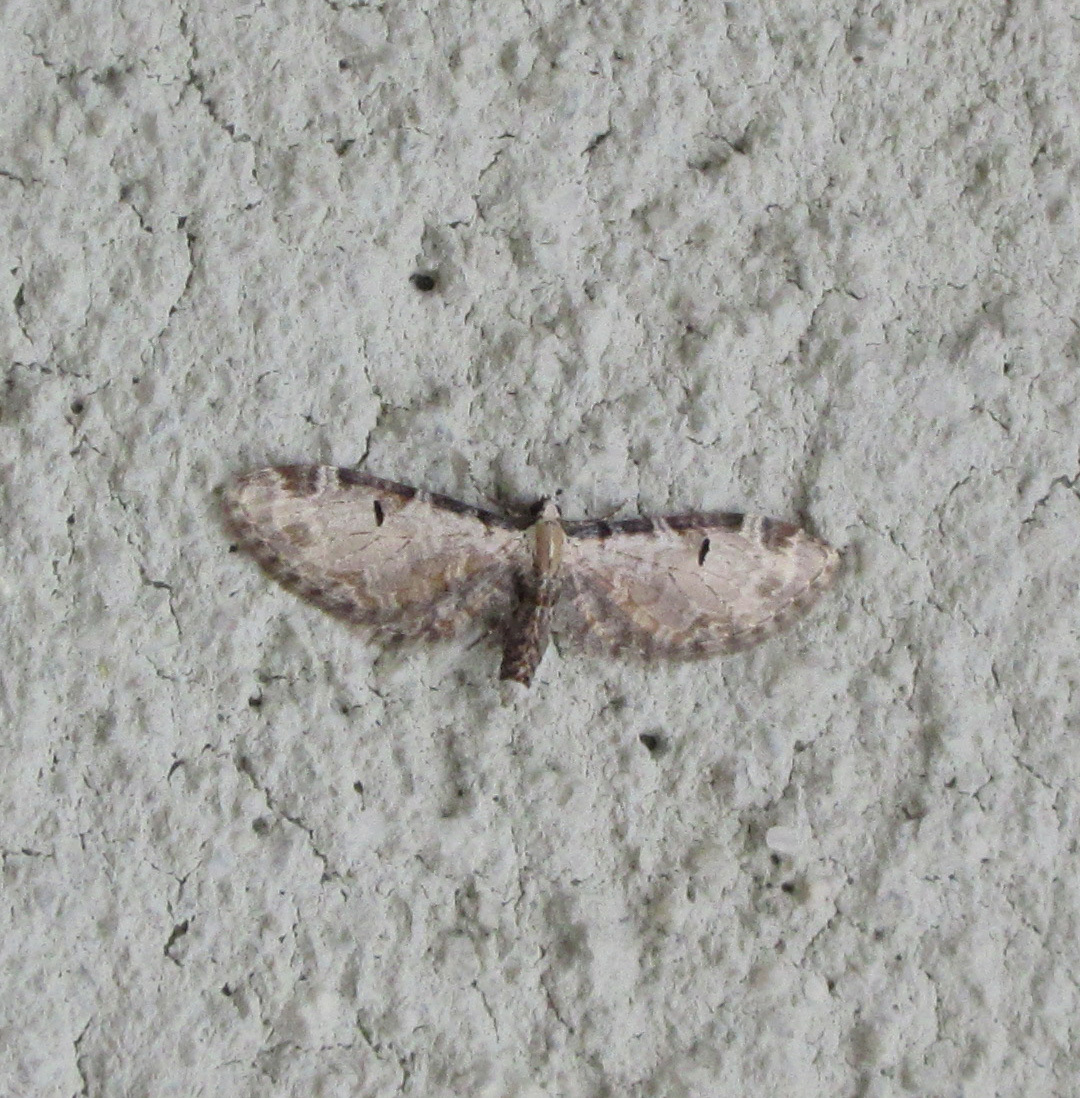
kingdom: Animalia
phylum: Arthropoda
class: Insecta
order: Lepidoptera
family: Geometridae
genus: Eupithecia
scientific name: Eupithecia ravocostaliata
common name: Great varigated pug
